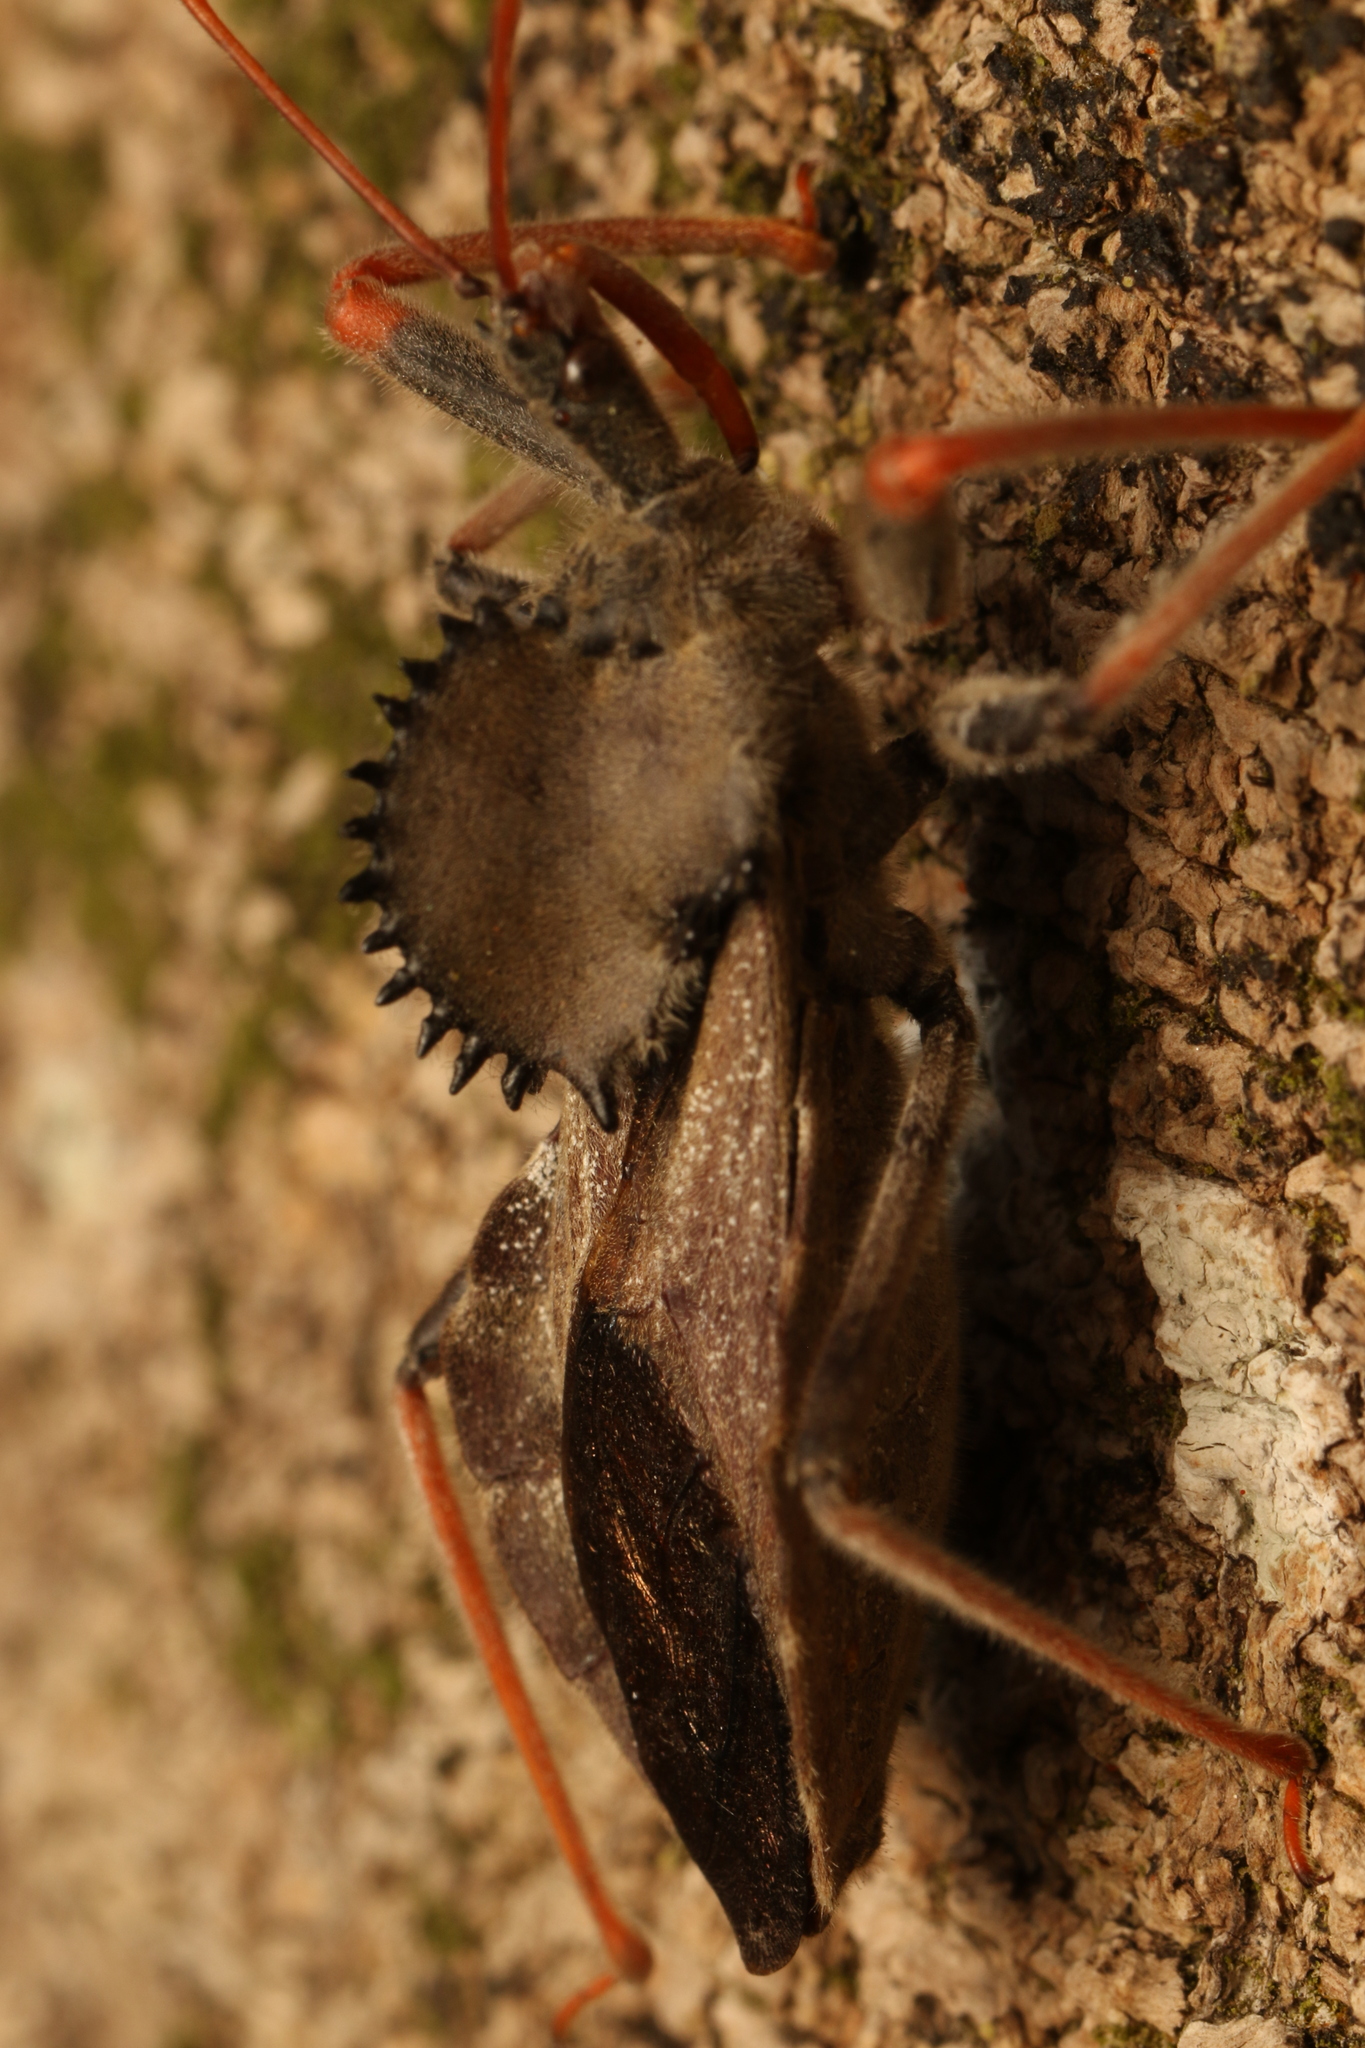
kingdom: Animalia
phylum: Arthropoda
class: Insecta
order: Hemiptera
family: Reduviidae
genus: Arilus
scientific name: Arilus carinatus
